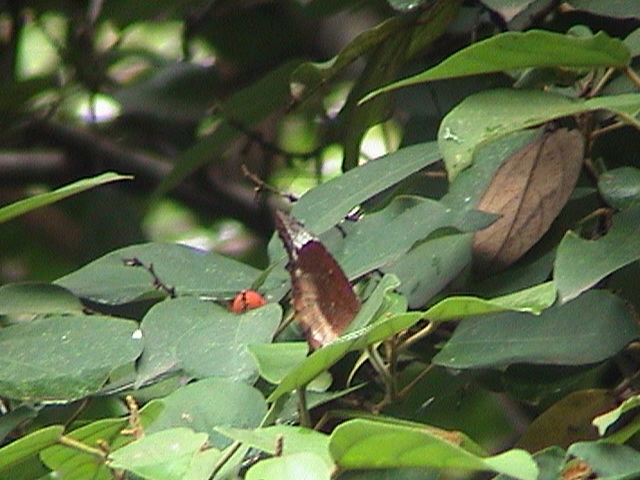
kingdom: Animalia
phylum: Arthropoda
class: Insecta
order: Lepidoptera
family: Nymphalidae
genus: Elymnias
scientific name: Elymnias caudata
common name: Tailed palmfly
